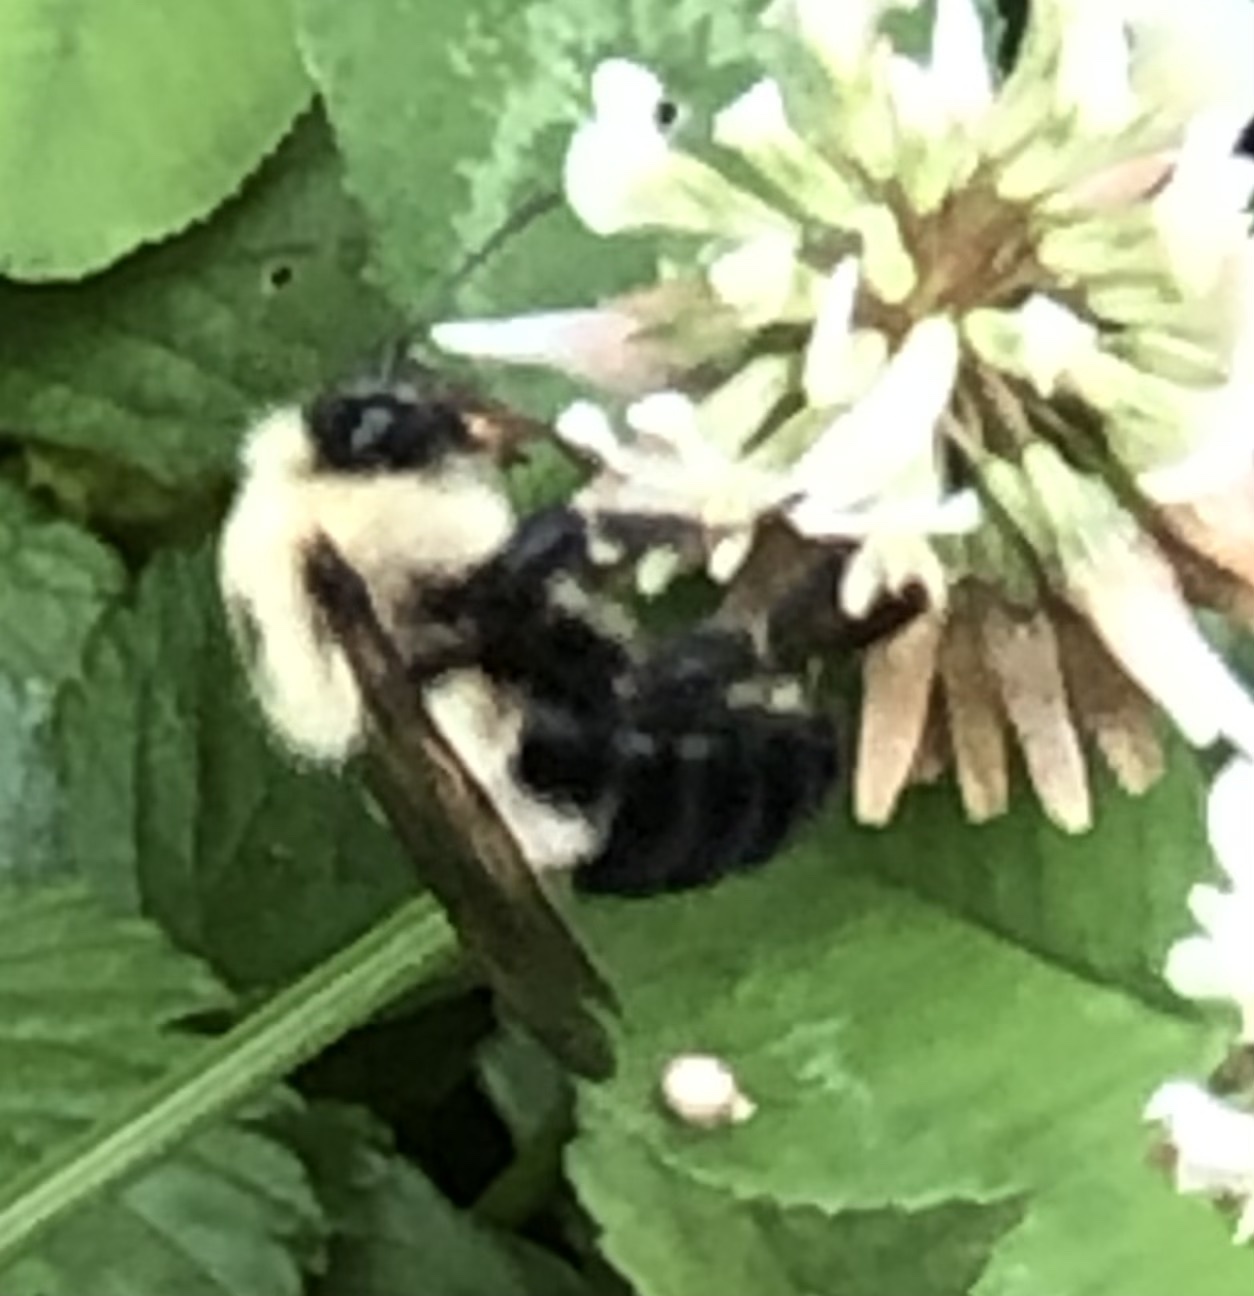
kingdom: Animalia
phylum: Arthropoda
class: Insecta
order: Hymenoptera
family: Apidae
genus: Bombus
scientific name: Bombus bimaculatus
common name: Two-spotted bumble bee
